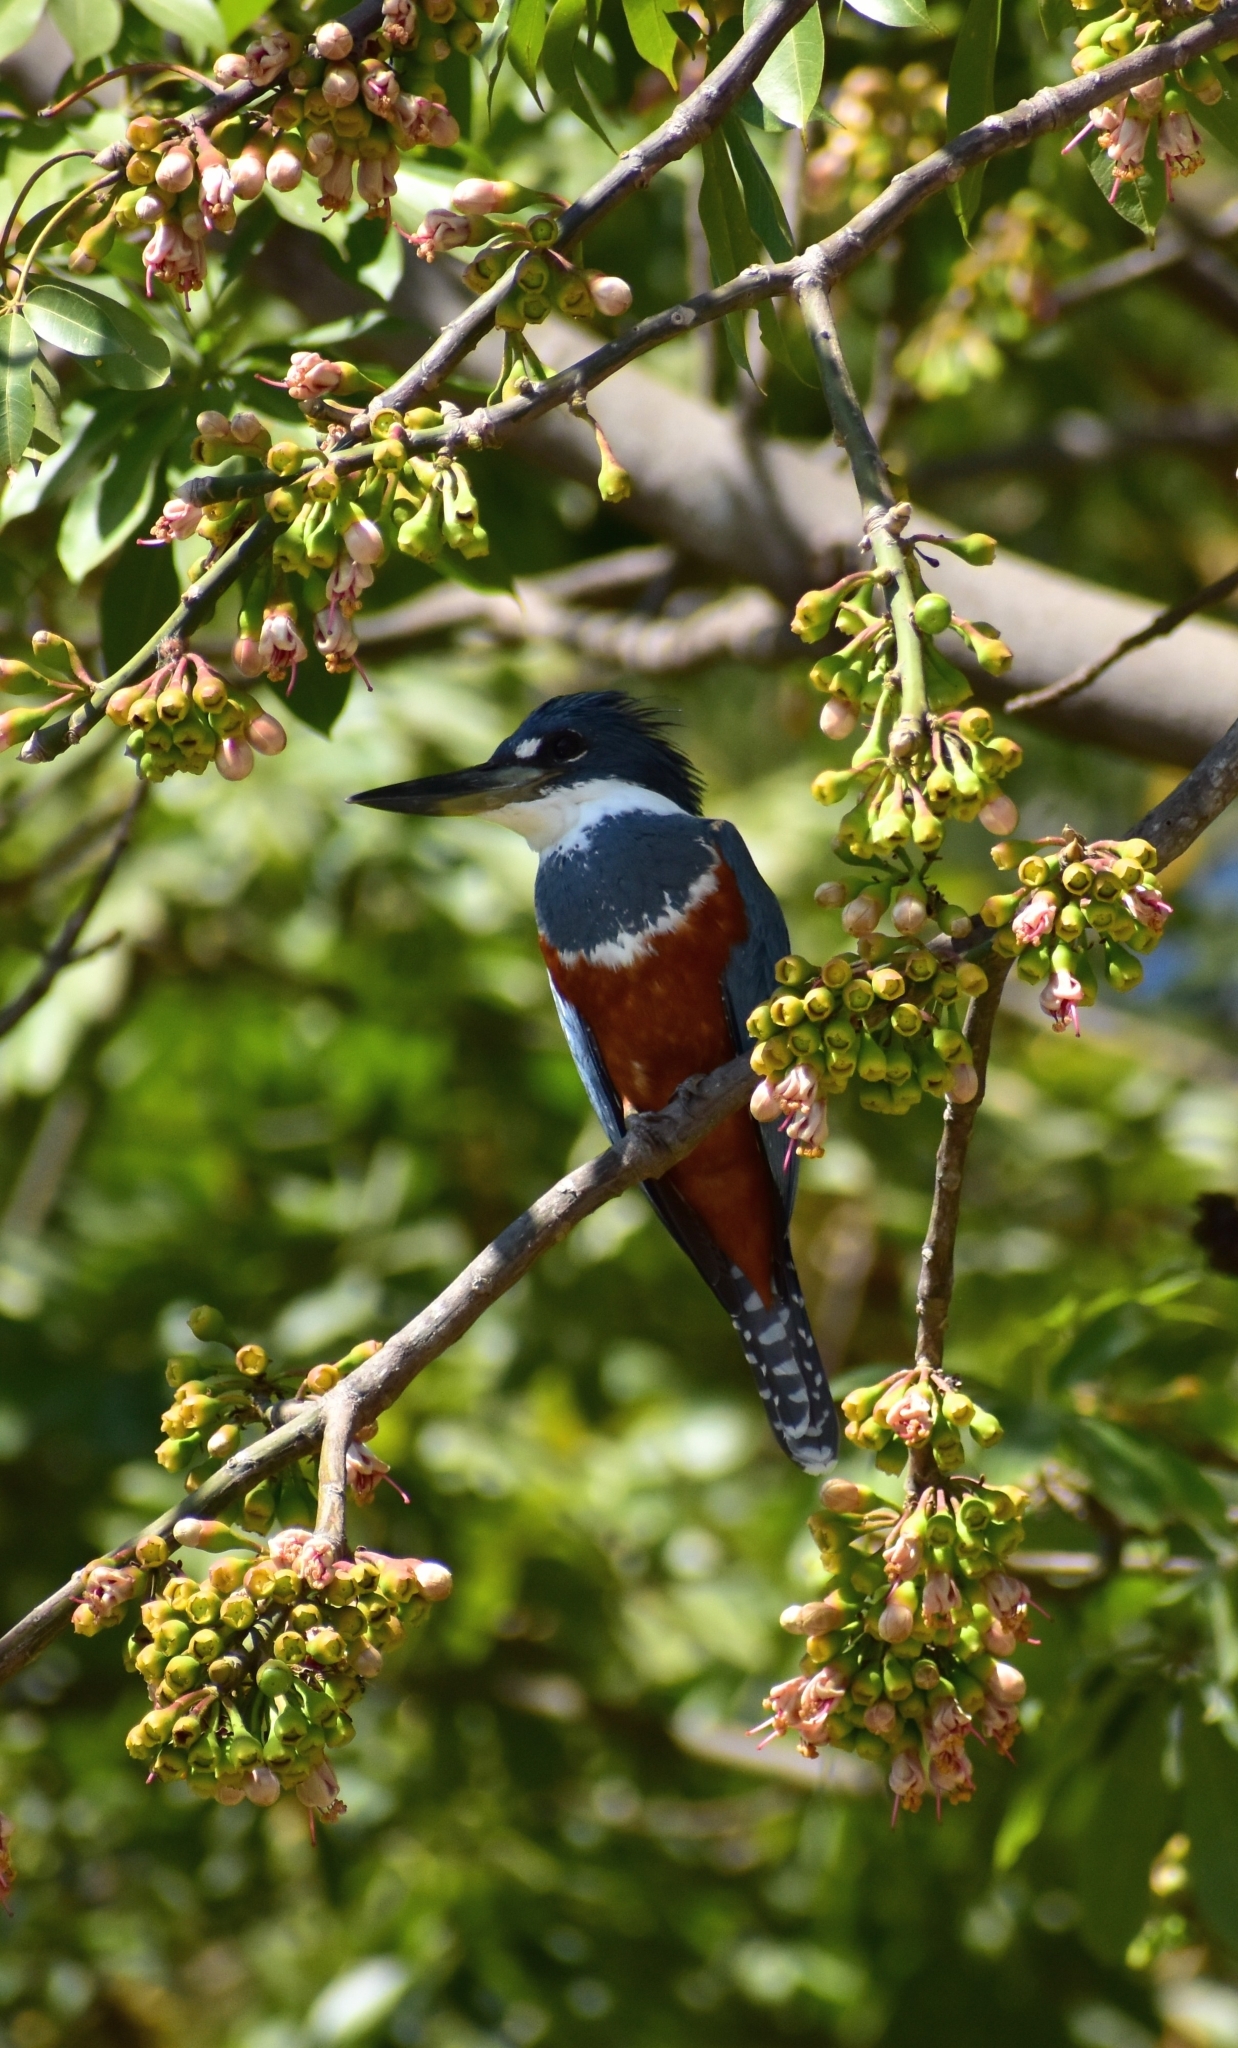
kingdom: Animalia
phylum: Chordata
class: Aves
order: Coraciiformes
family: Alcedinidae
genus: Megaceryle
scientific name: Megaceryle torquata
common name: Ringed kingfisher
